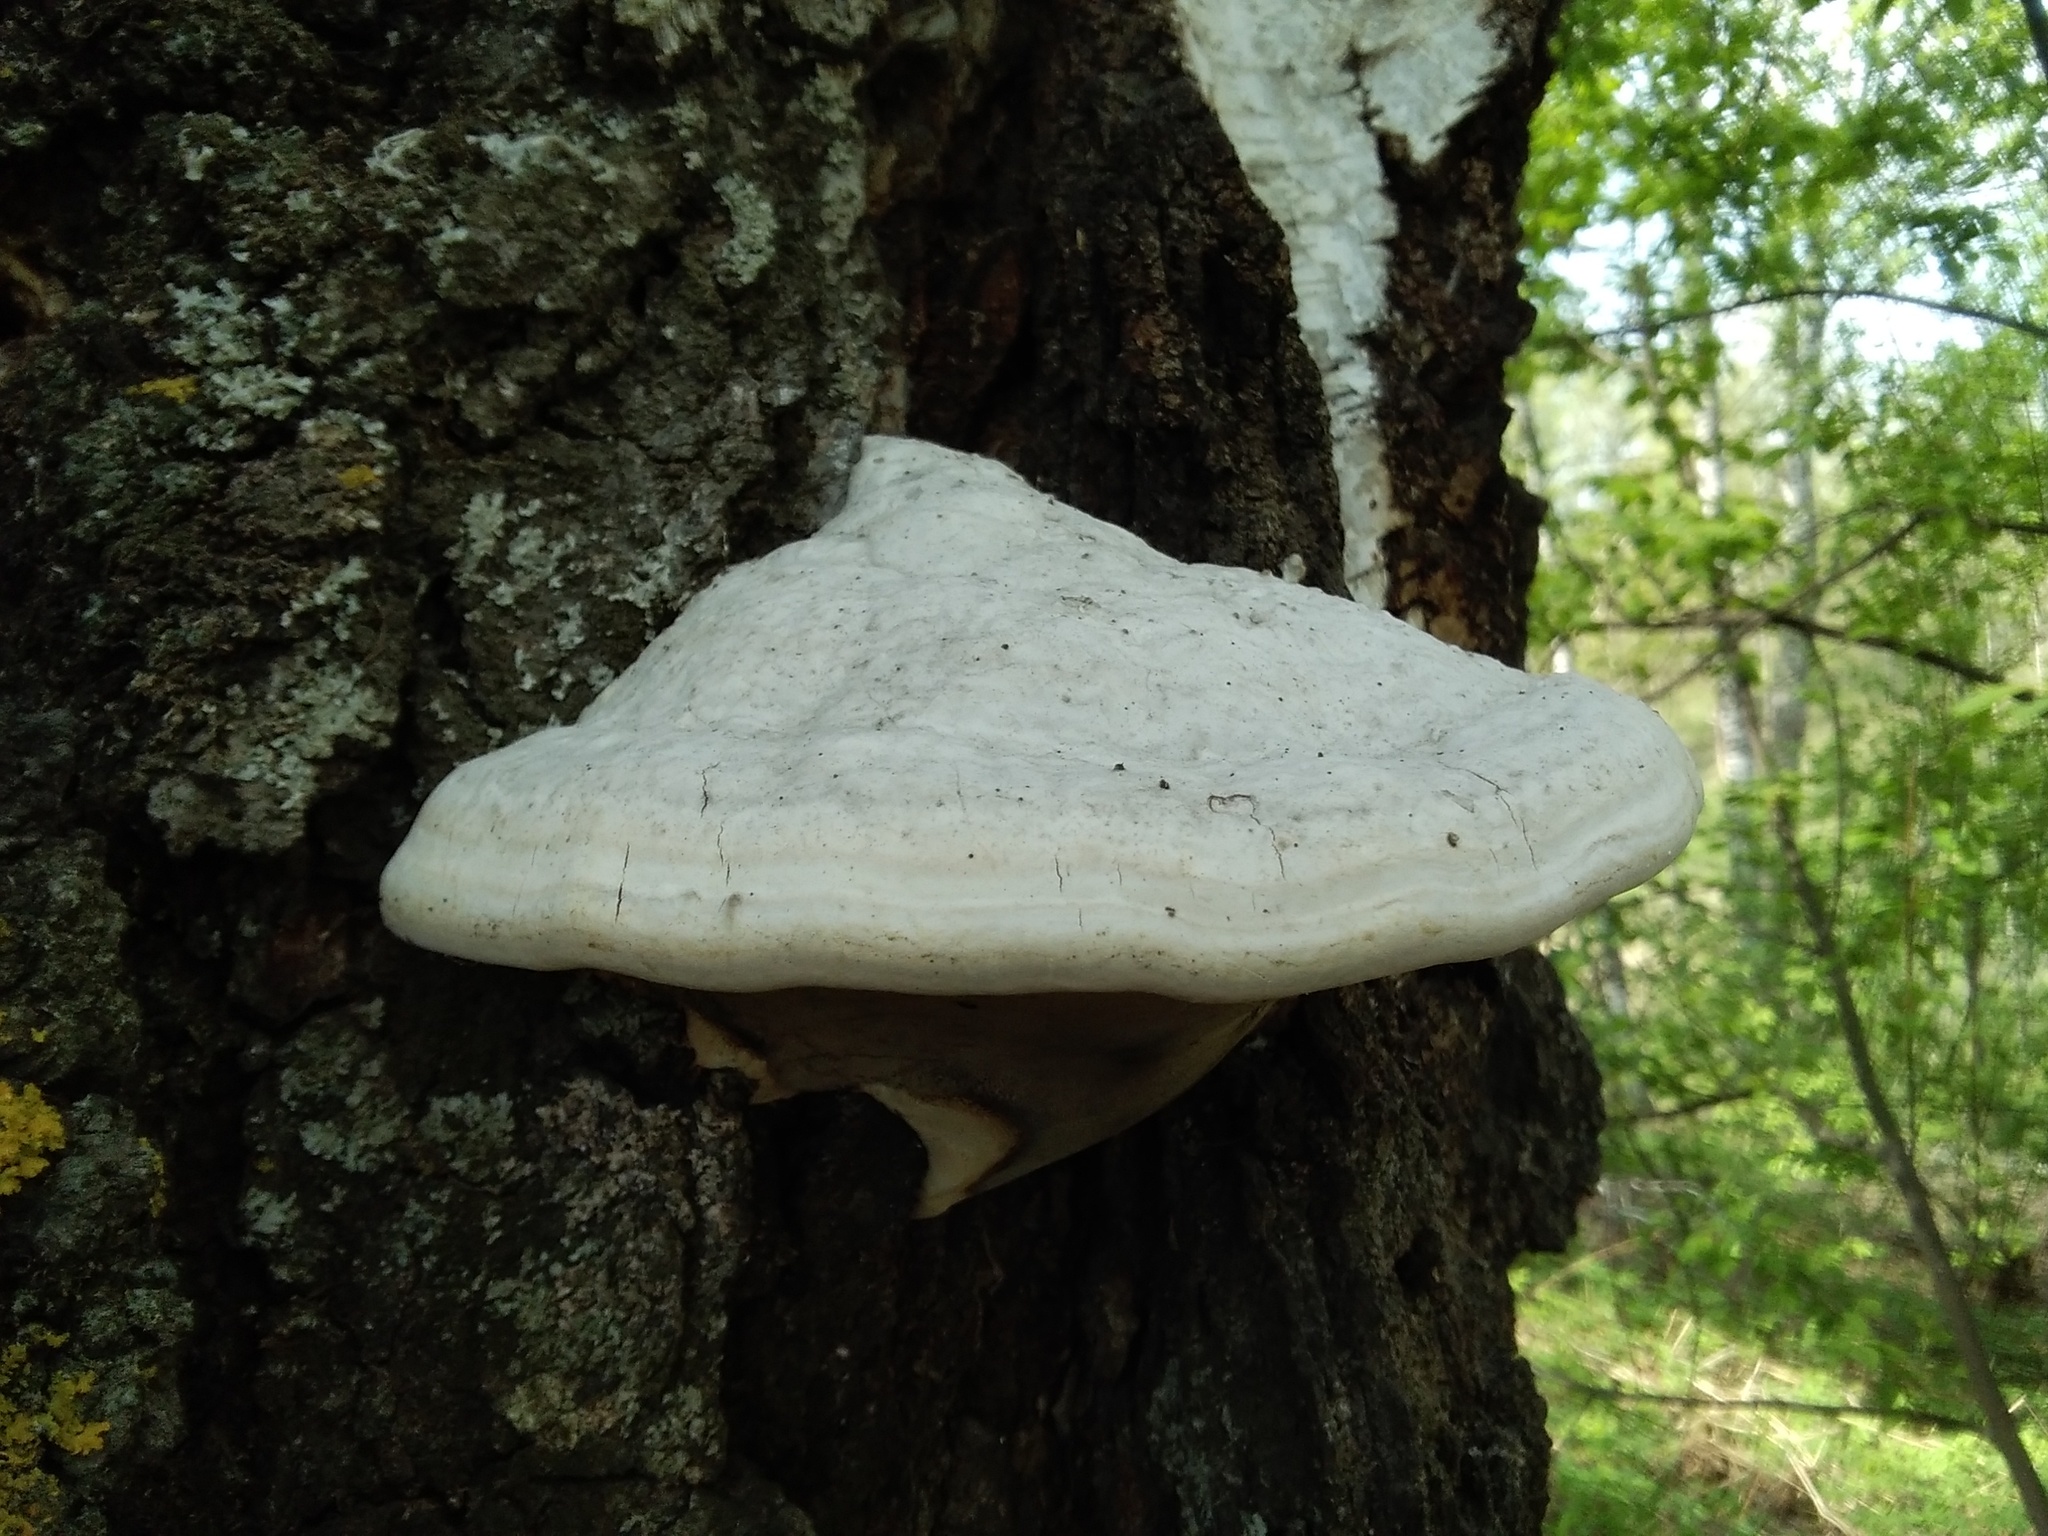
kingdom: Fungi
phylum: Basidiomycota
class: Agaricomycetes
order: Polyporales
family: Polyporaceae
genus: Fomes
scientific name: Fomes fomentarius
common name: Hoof fungus
